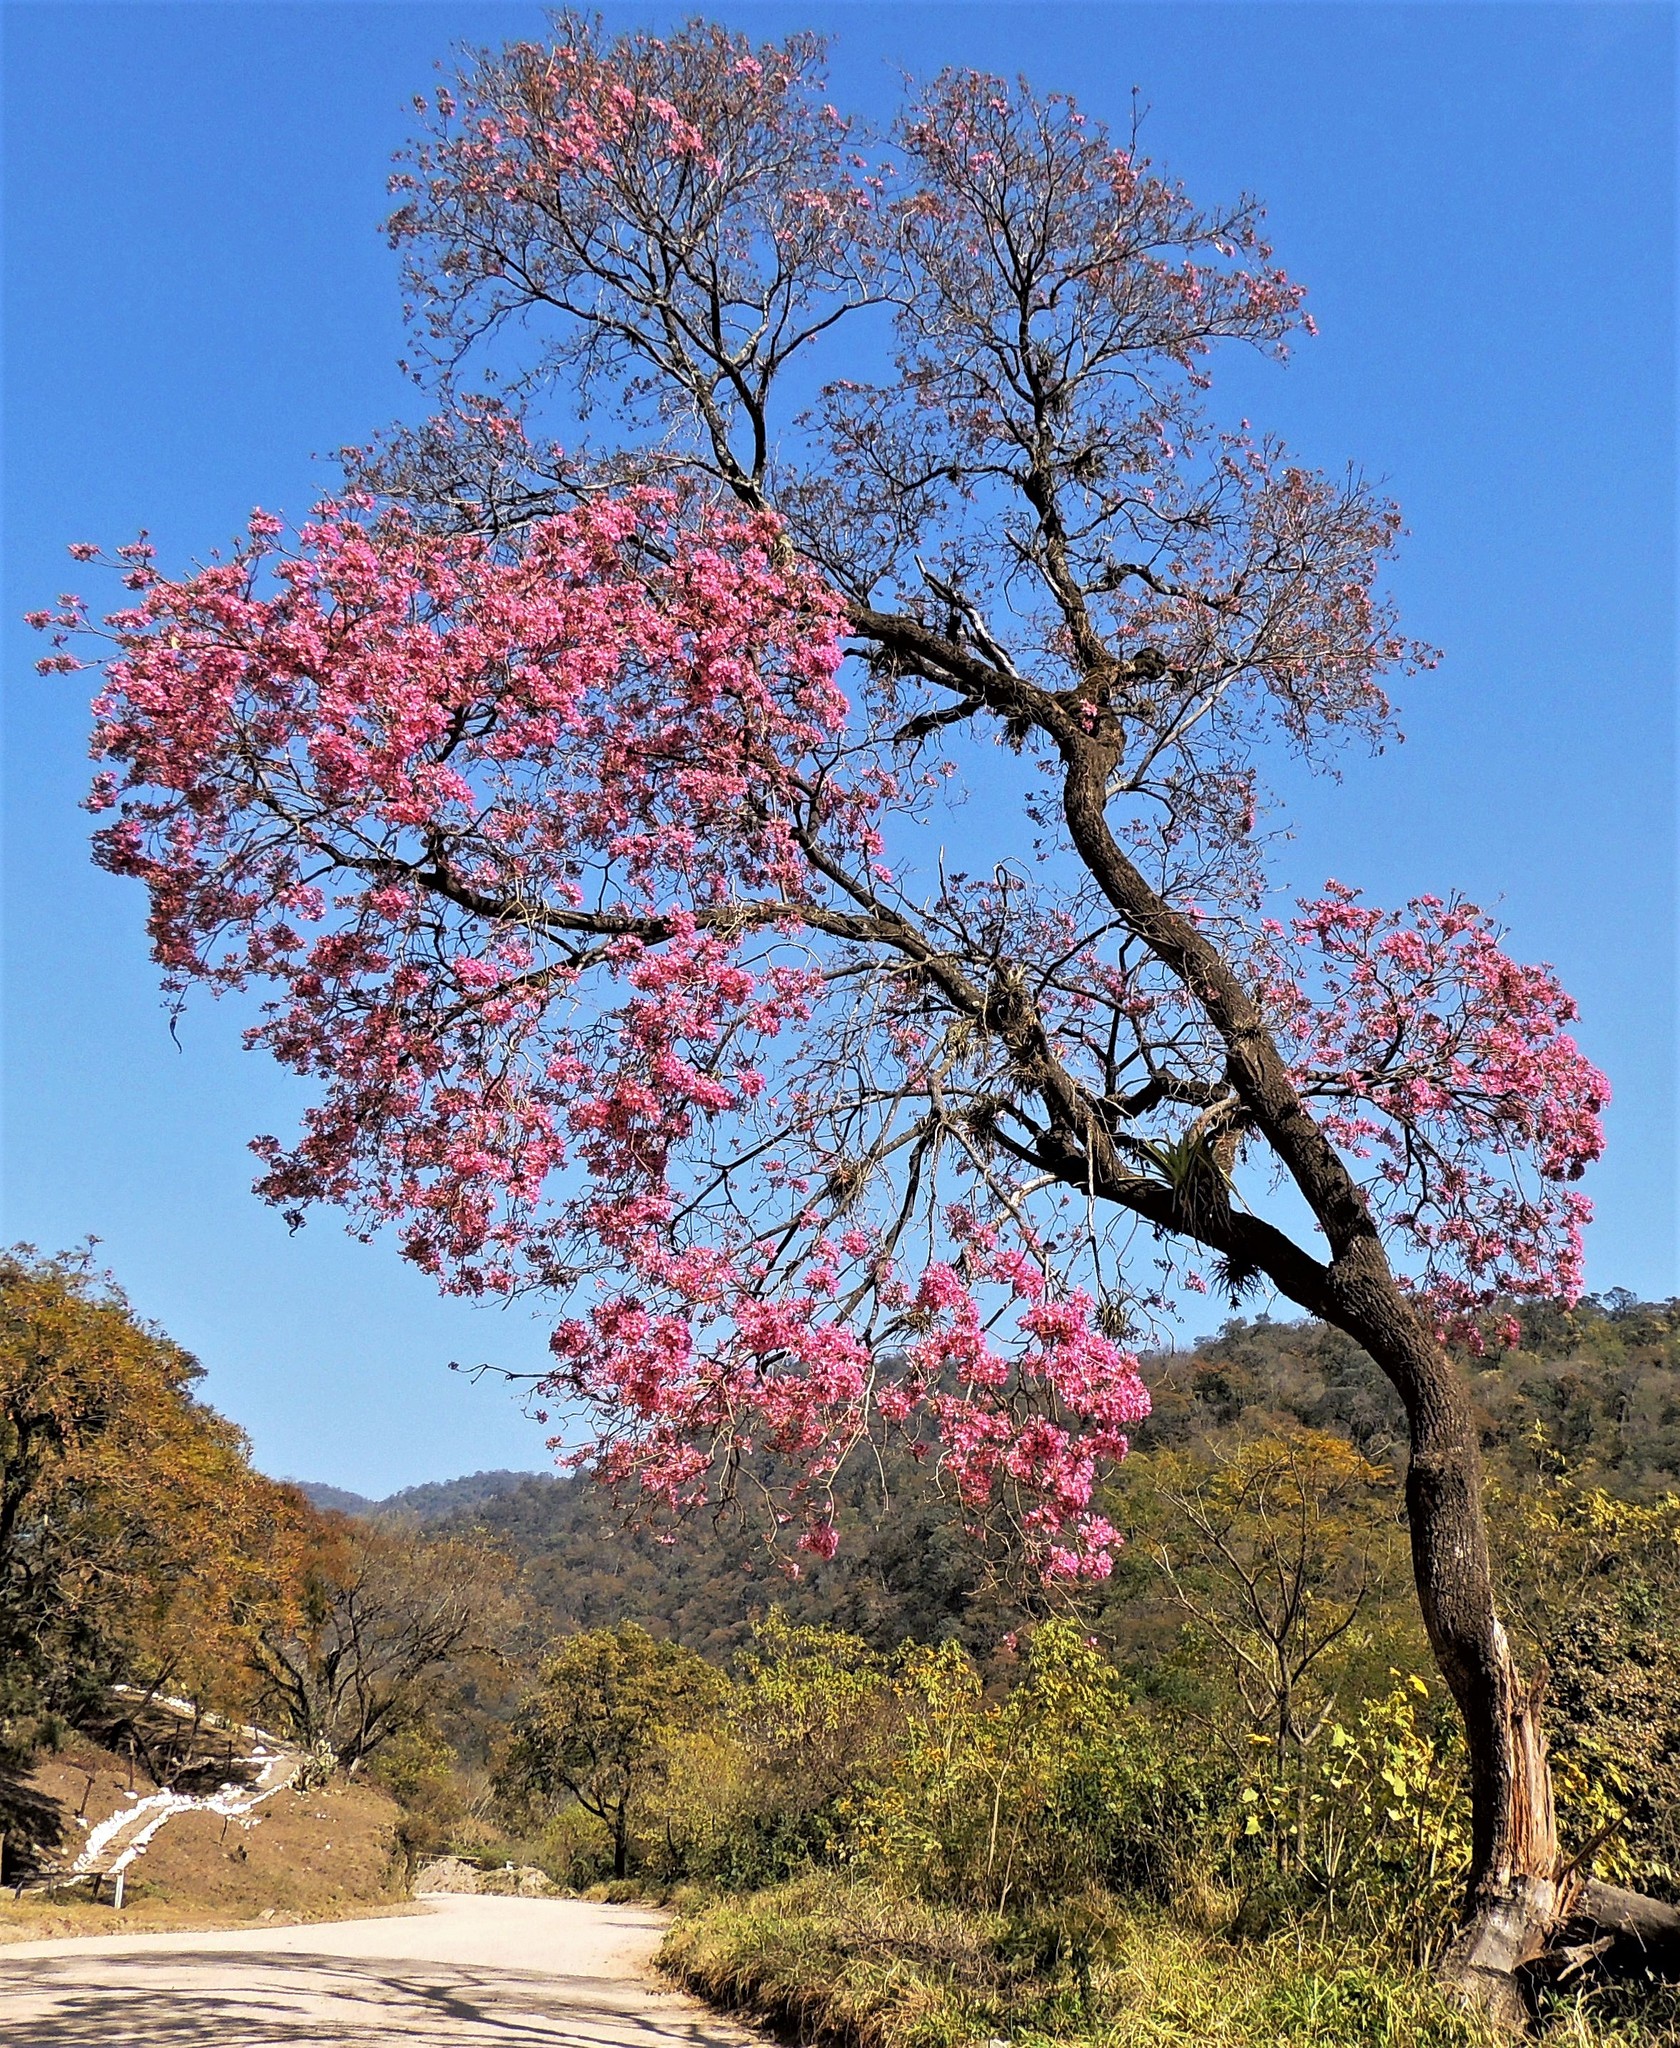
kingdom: Plantae
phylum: Tracheophyta
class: Magnoliopsida
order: Lamiales
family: Bignoniaceae
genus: Handroanthus
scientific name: Handroanthus impetiginosum
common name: Pink trumpet tree
